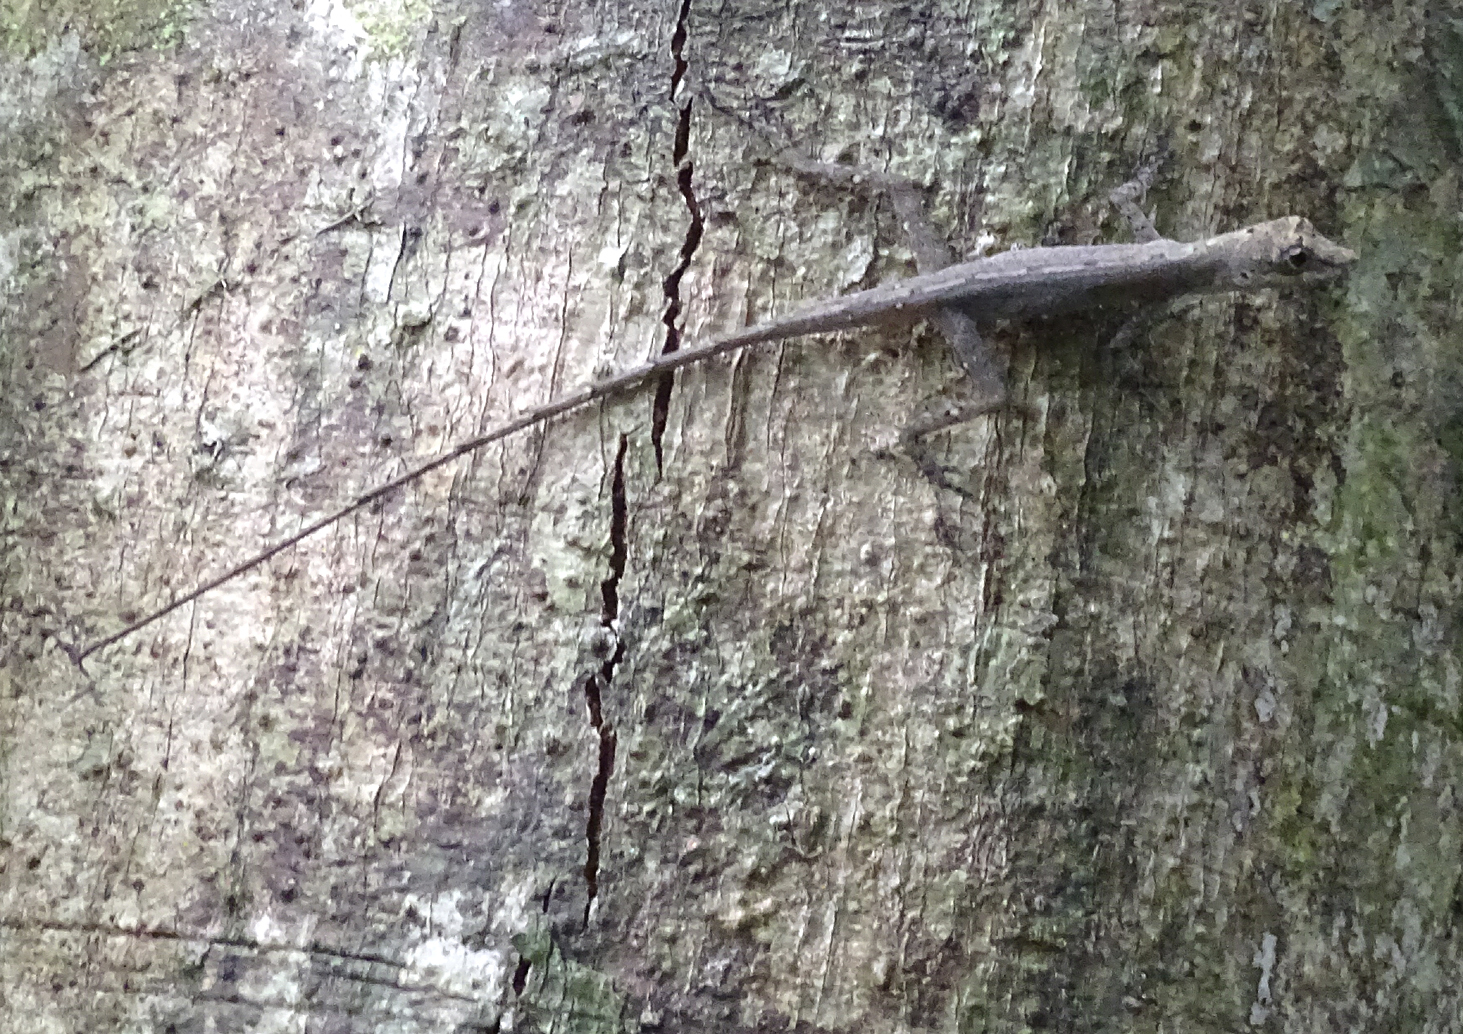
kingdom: Animalia
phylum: Chordata
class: Squamata
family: Dactyloidae
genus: Anolis
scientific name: Anolis fuscoauratus
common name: Brown-eared anole
